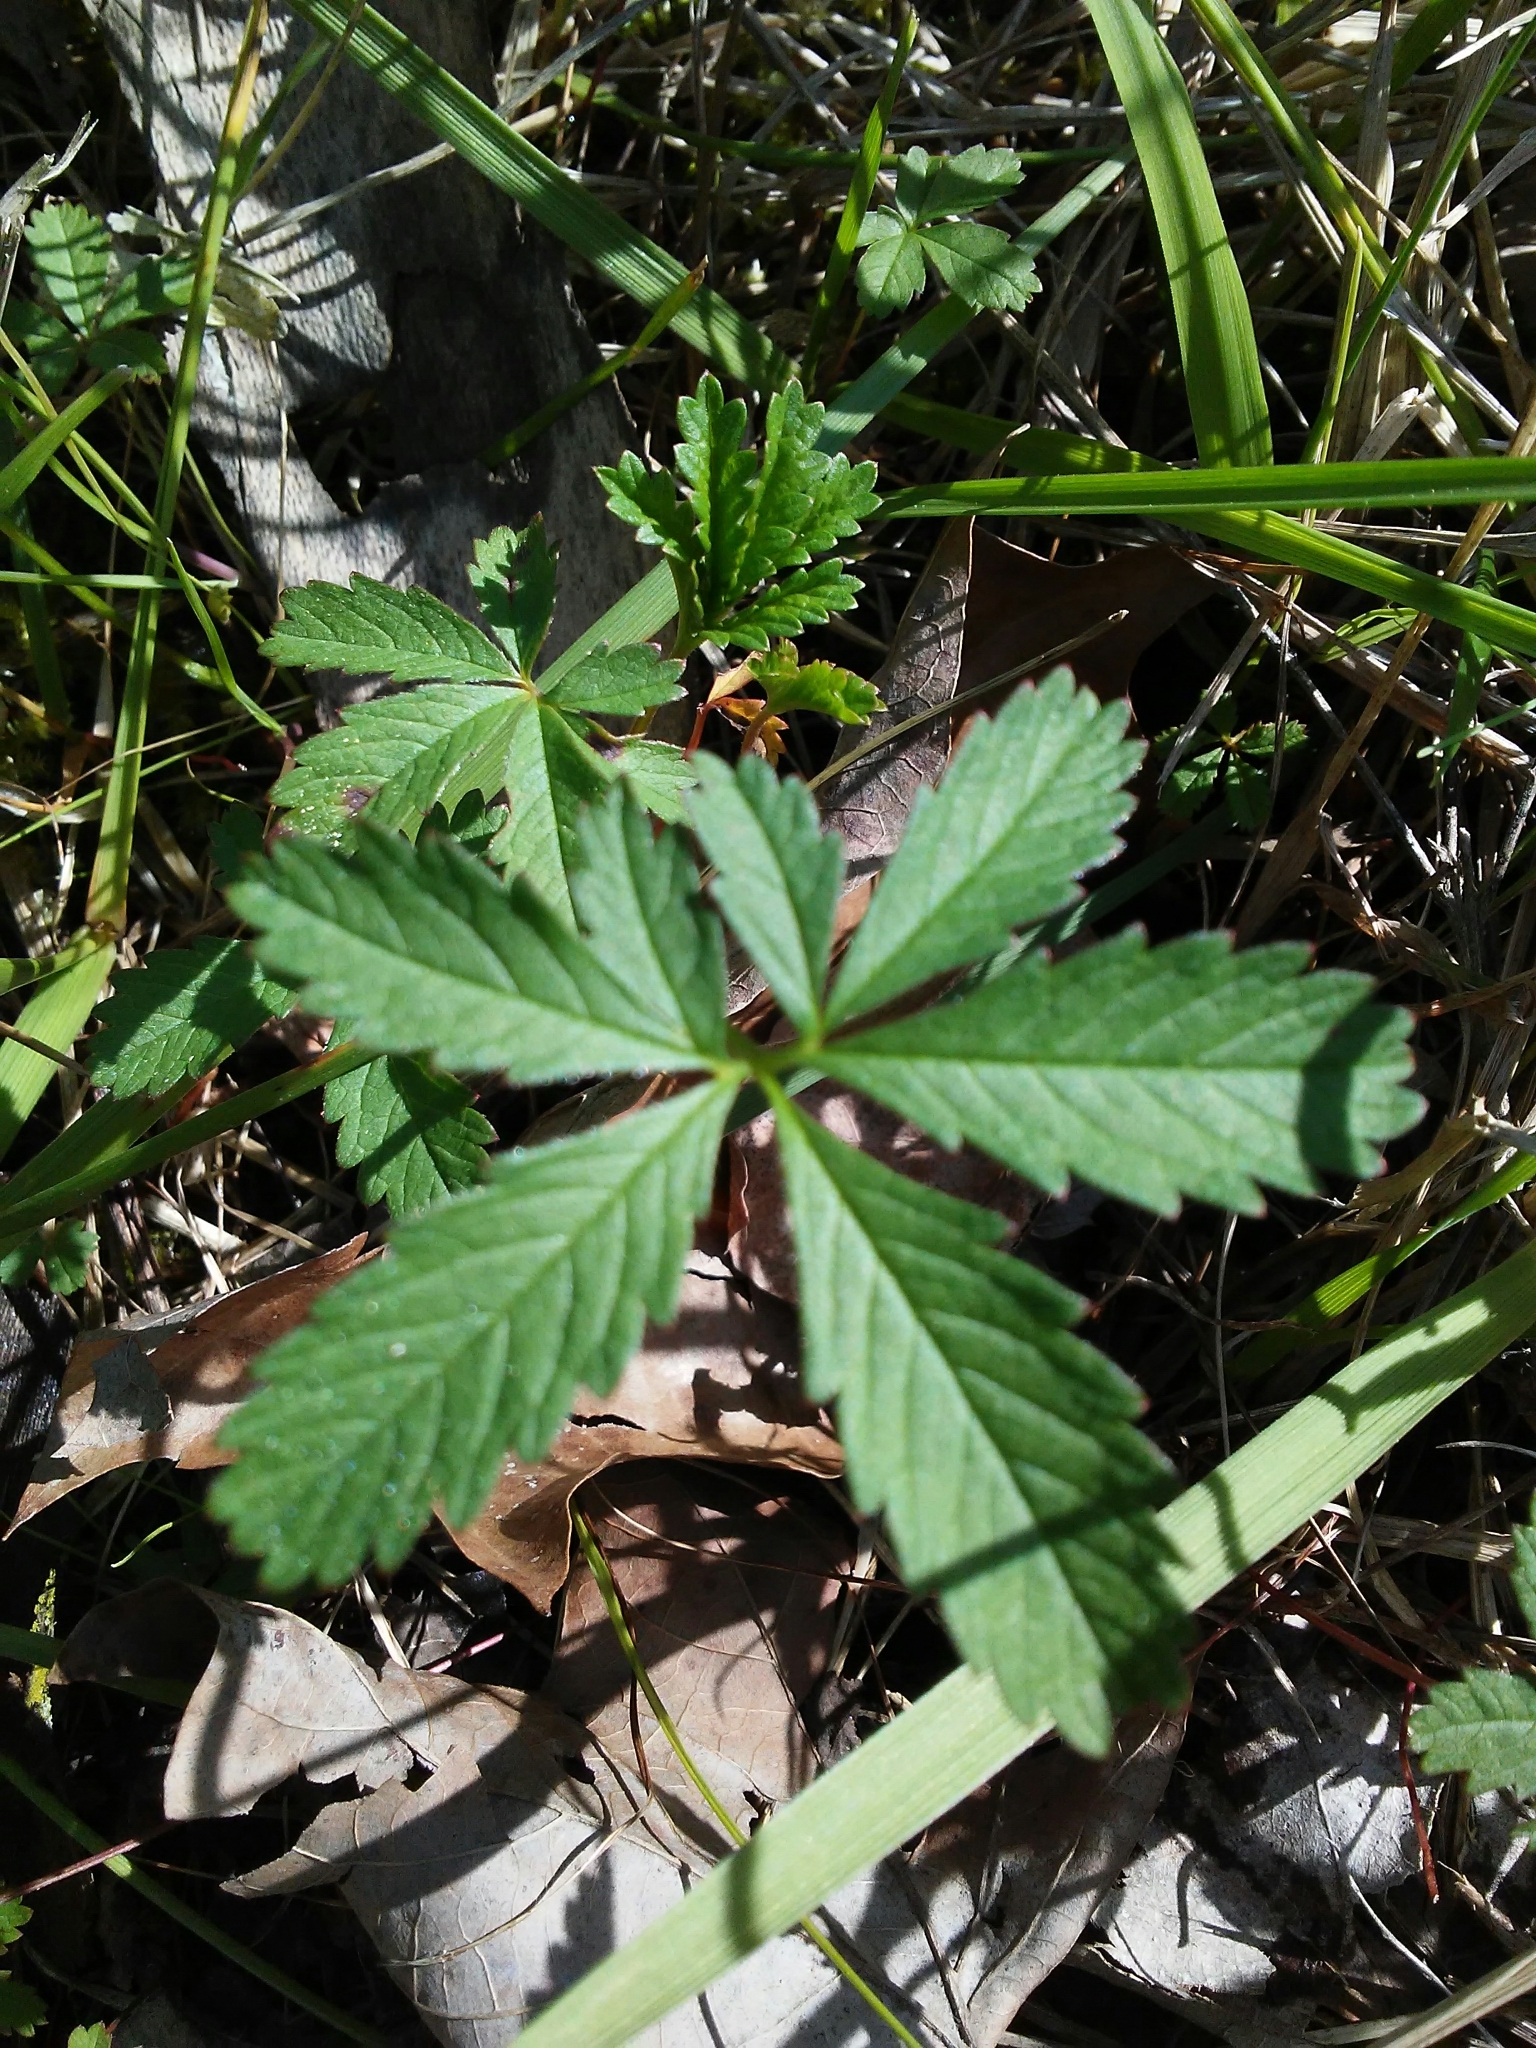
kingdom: Plantae
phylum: Tracheophyta
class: Magnoliopsida
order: Rosales
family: Rosaceae
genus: Potentilla
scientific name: Potentilla simplex
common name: Old field cinquefoil
